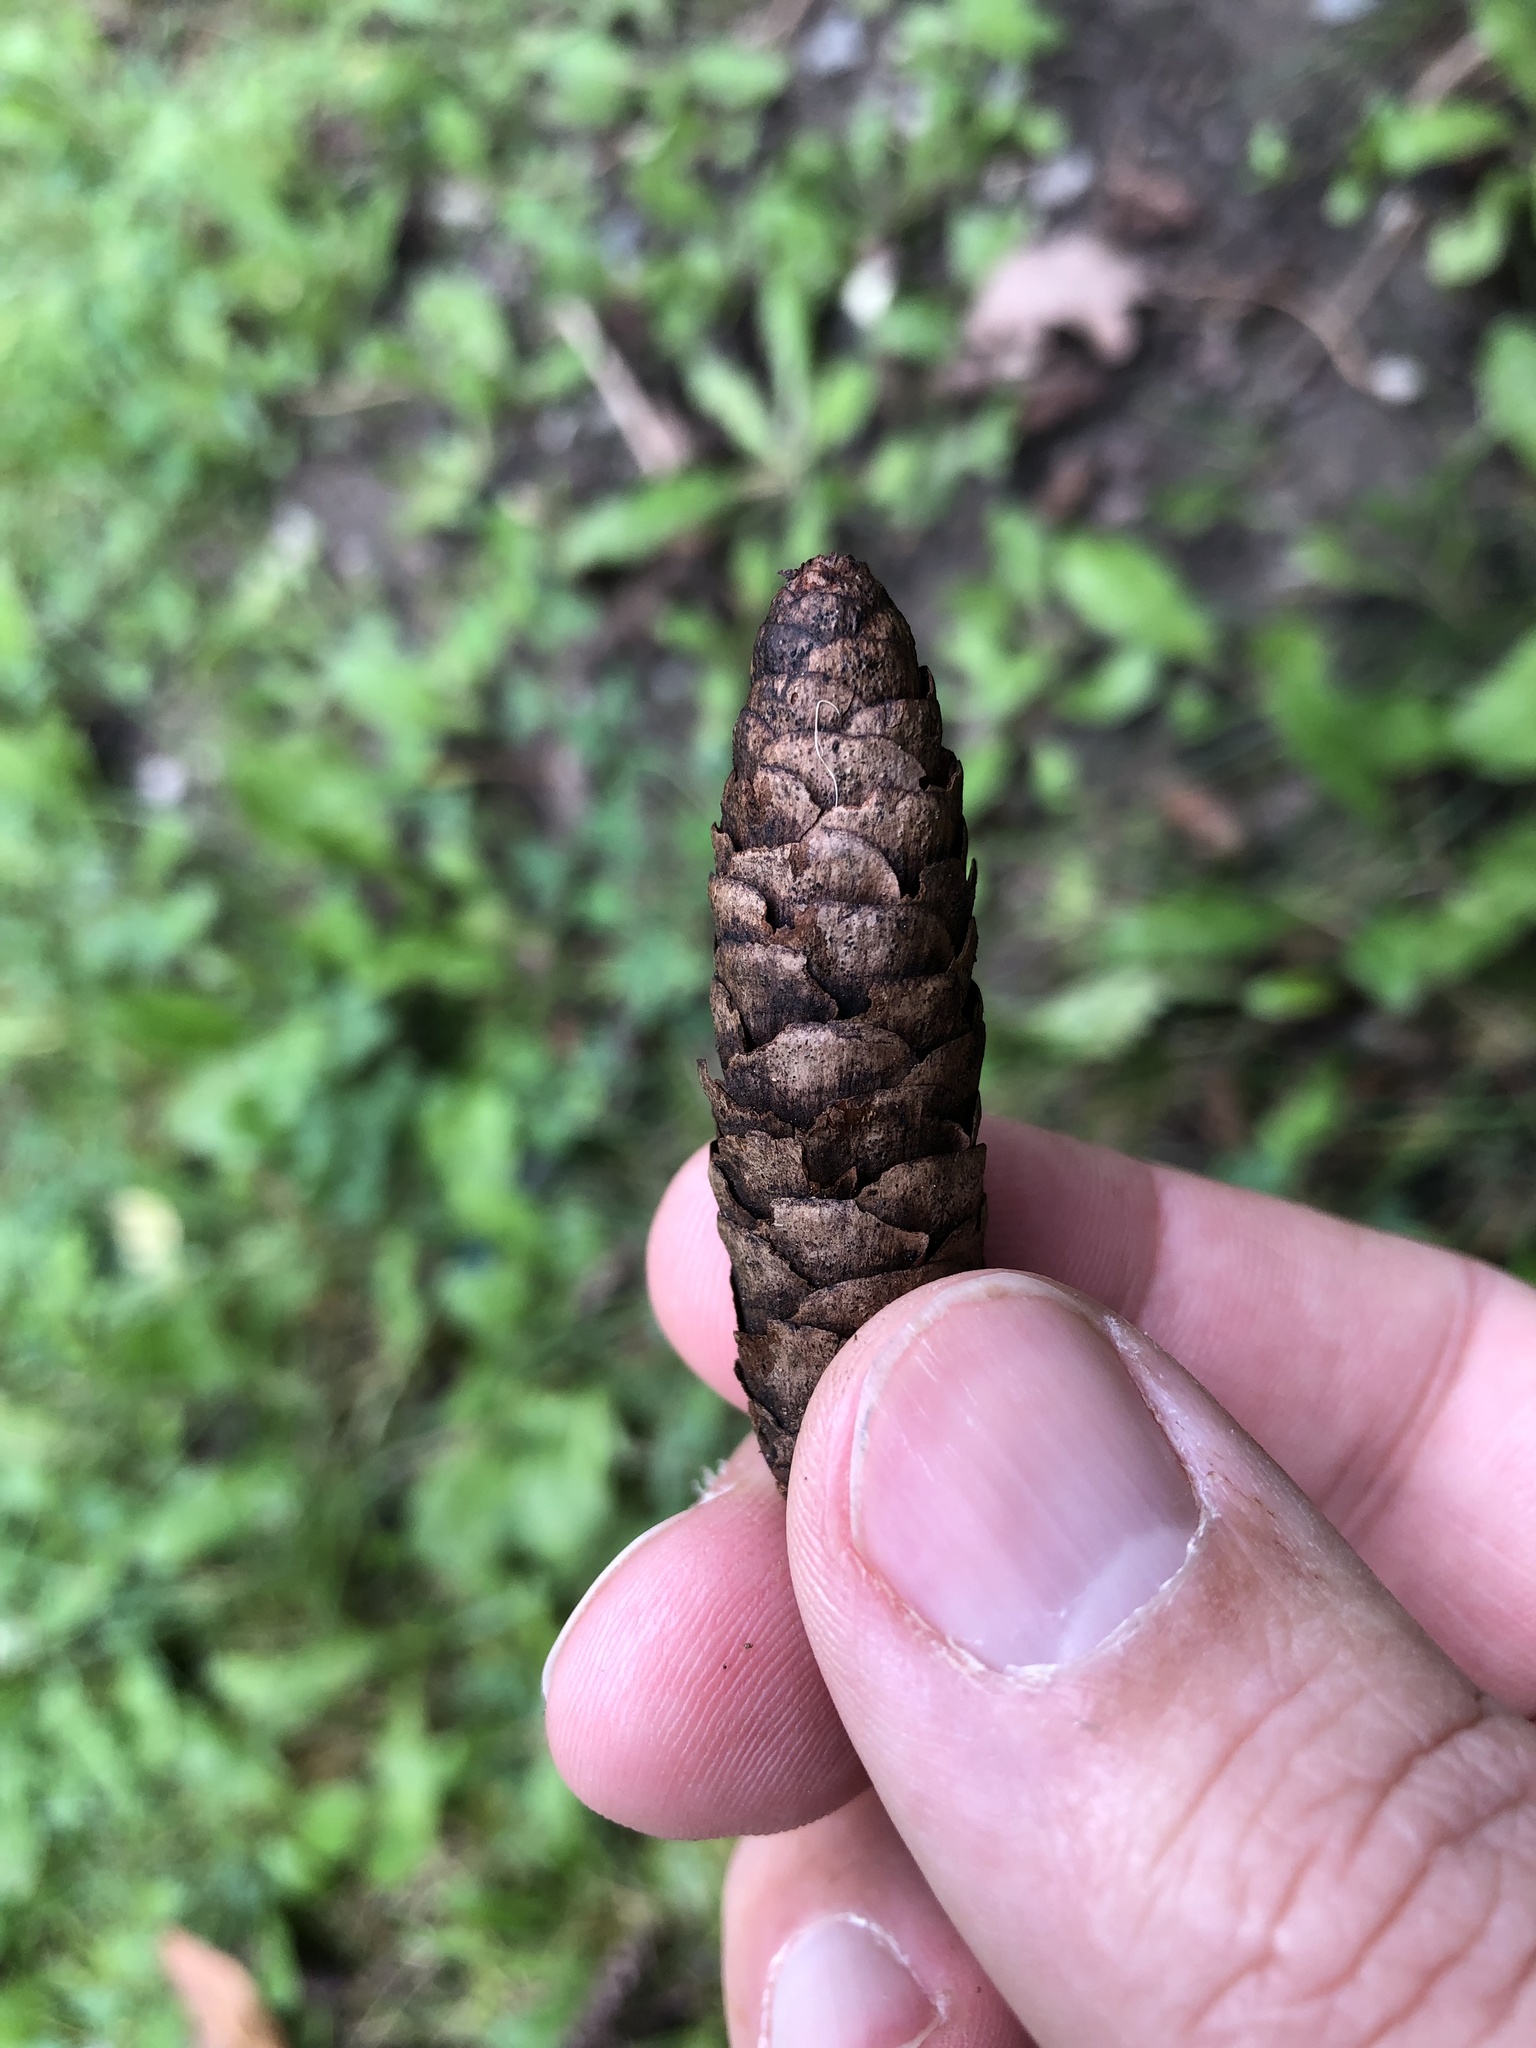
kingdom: Plantae
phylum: Tracheophyta
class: Pinopsida
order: Pinales
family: Pinaceae
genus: Picea
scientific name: Picea glauca
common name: White spruce
